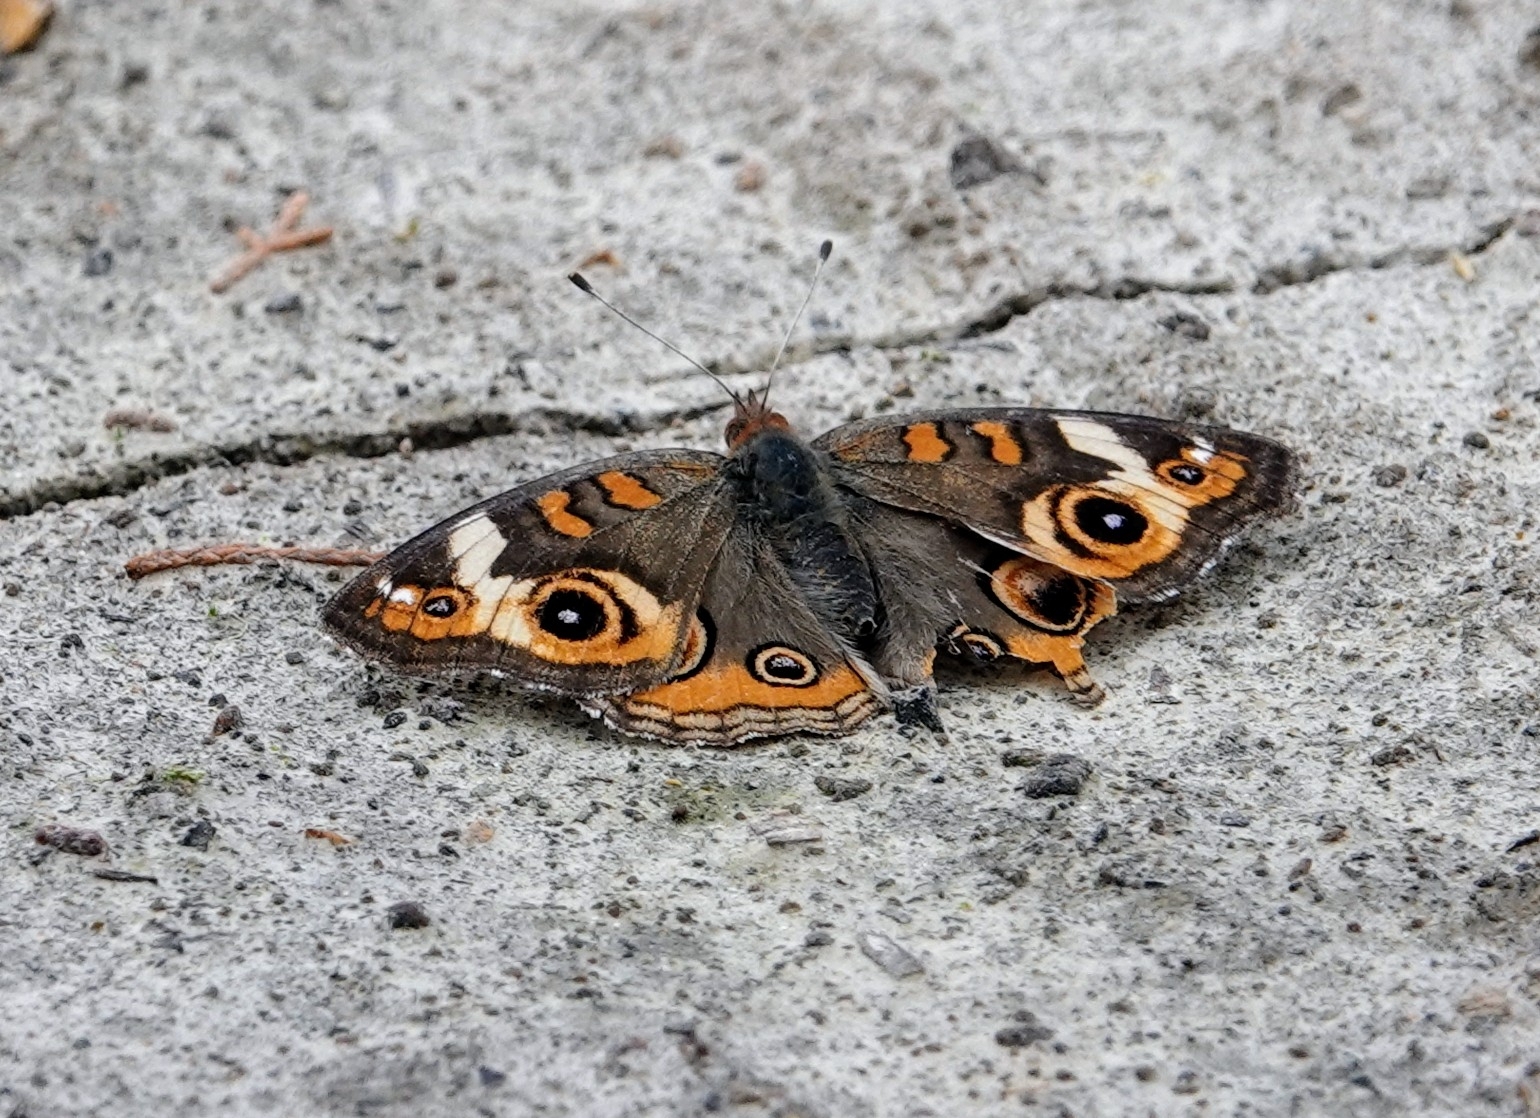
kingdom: Animalia
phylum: Arthropoda
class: Insecta
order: Lepidoptera
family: Nymphalidae
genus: Junonia
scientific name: Junonia coenia
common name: Common buckeye
